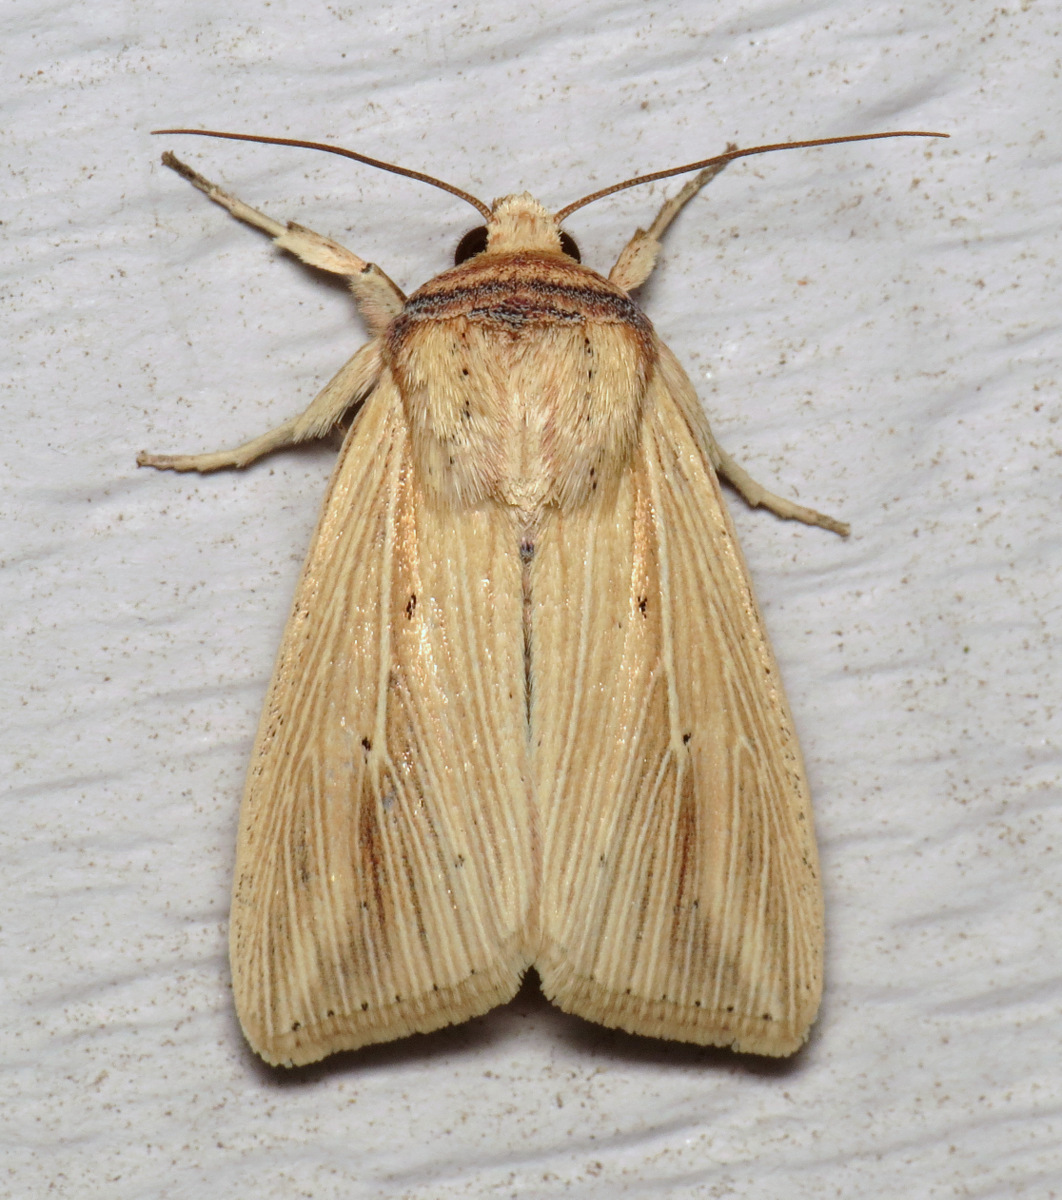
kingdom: Animalia
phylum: Arthropoda
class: Insecta
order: Lepidoptera
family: Noctuidae
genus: Leucania
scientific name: Leucania adjuta
